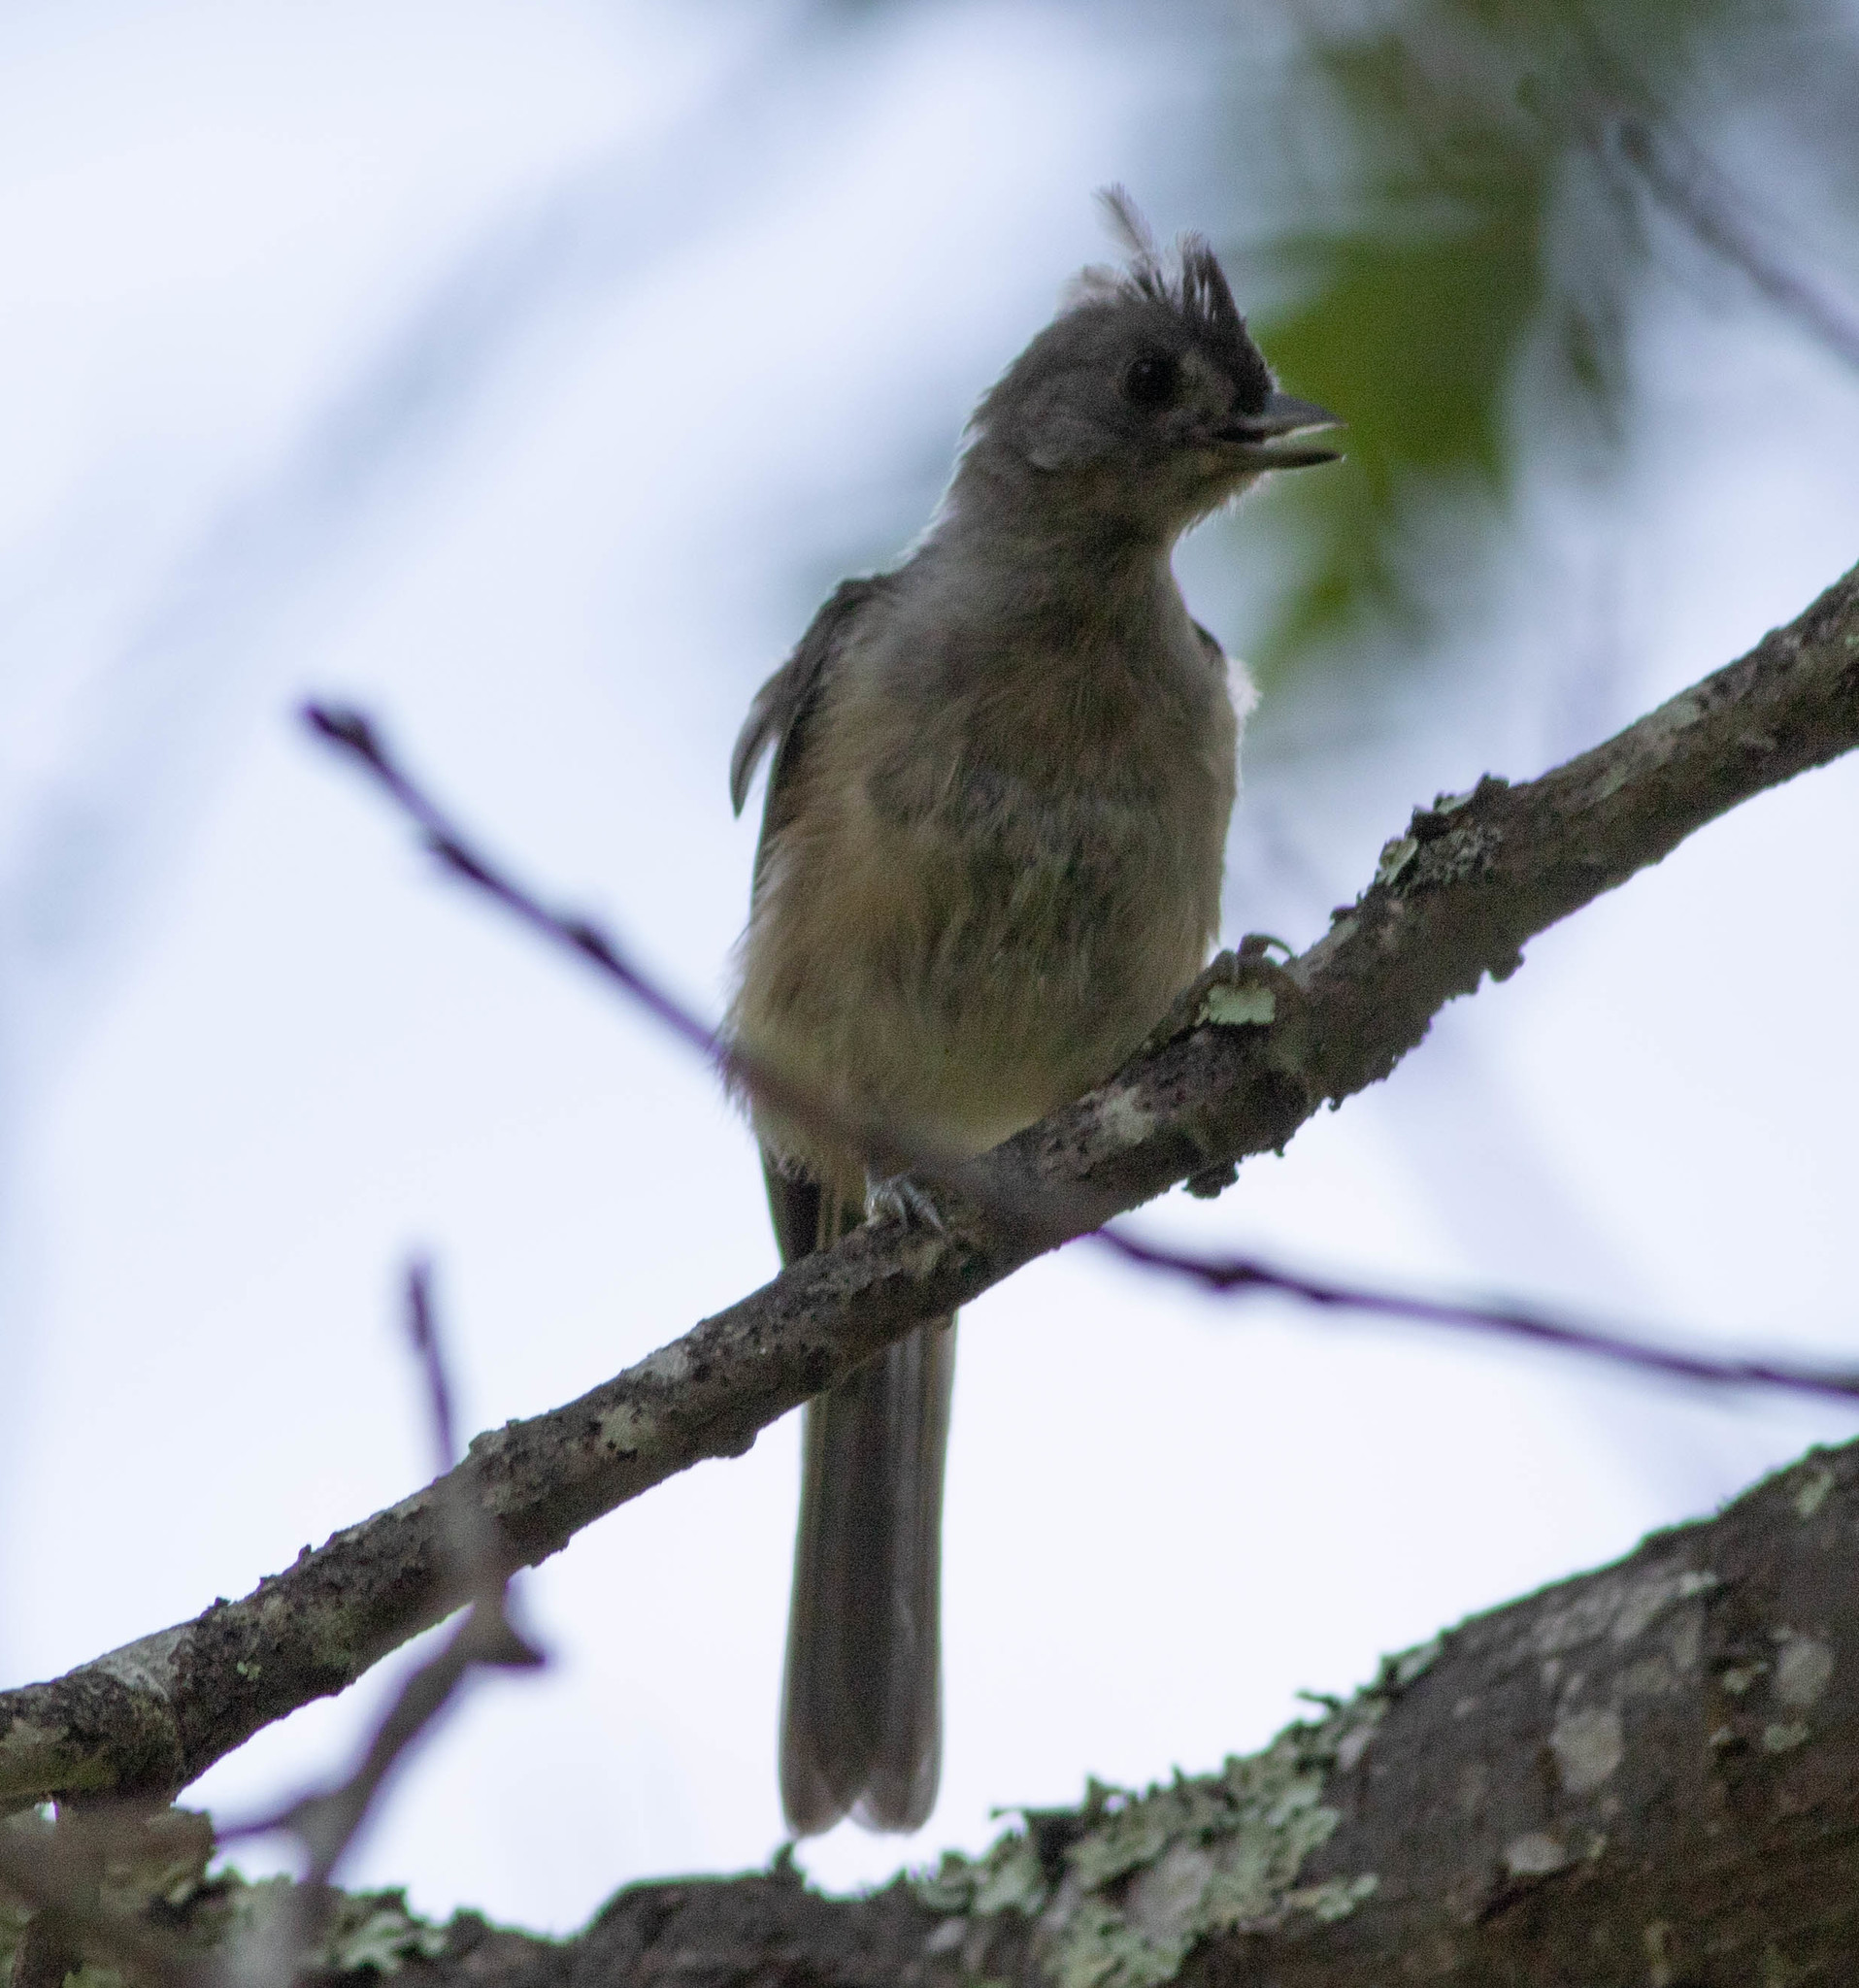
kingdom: Animalia
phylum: Chordata
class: Aves
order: Passeriformes
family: Paridae
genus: Baeolophus
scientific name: Baeolophus bicolor
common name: Tufted titmouse
